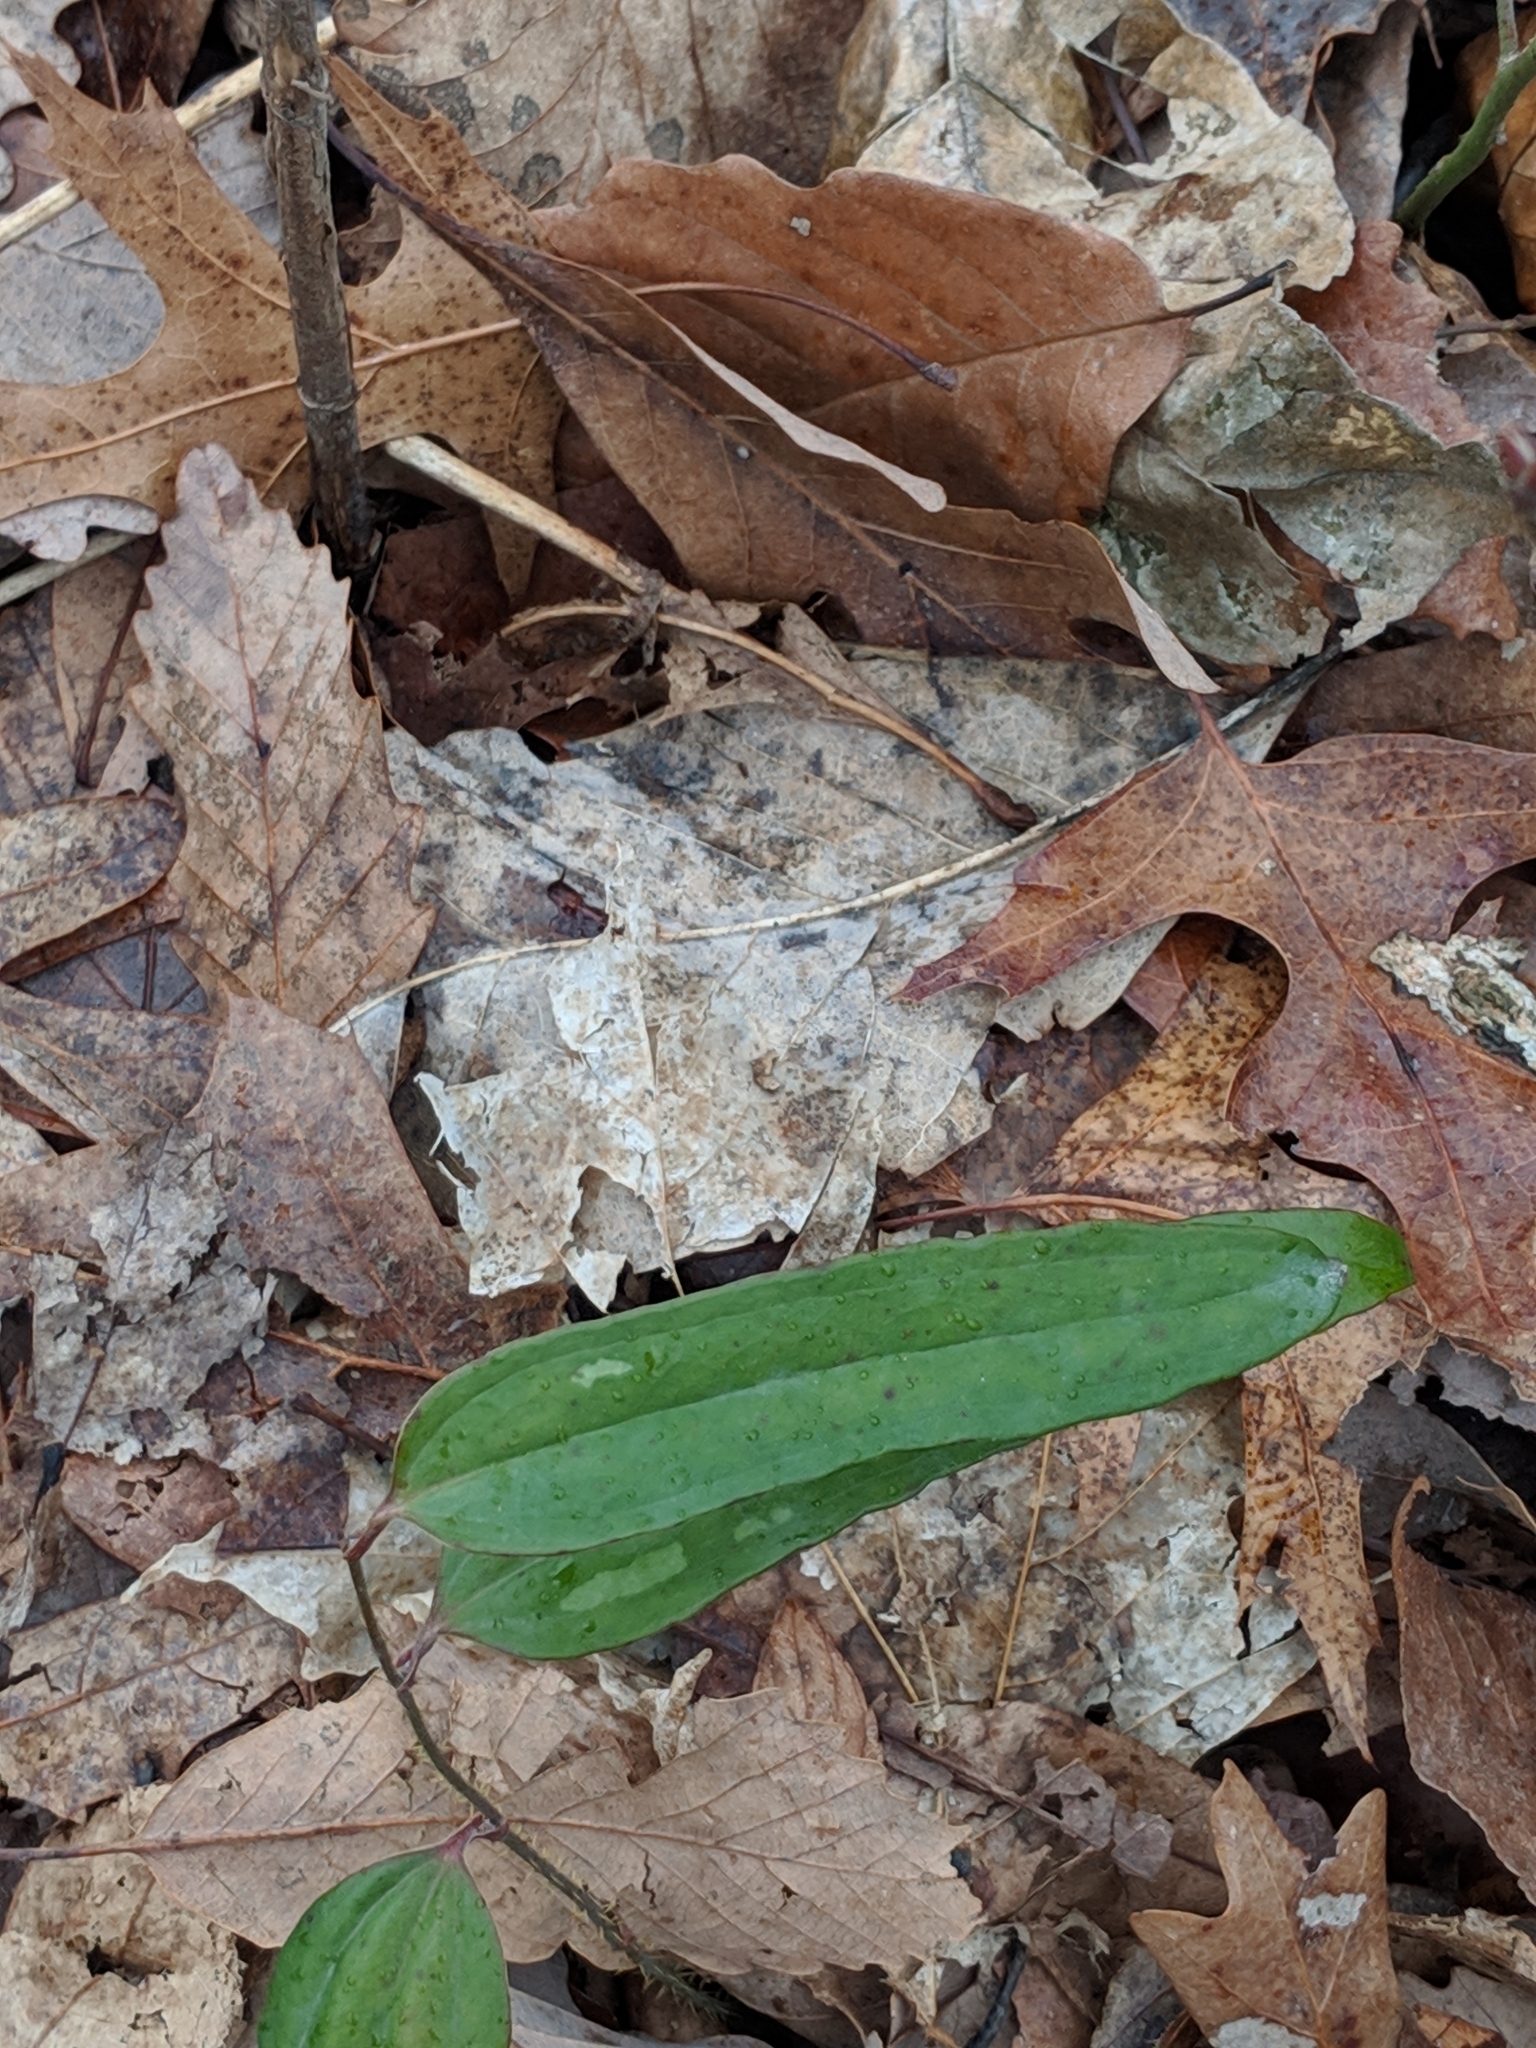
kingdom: Plantae
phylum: Tracheophyta
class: Liliopsida
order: Liliales
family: Smilacaceae
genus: Smilax
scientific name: Smilax glauca
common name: Cat greenbrier
